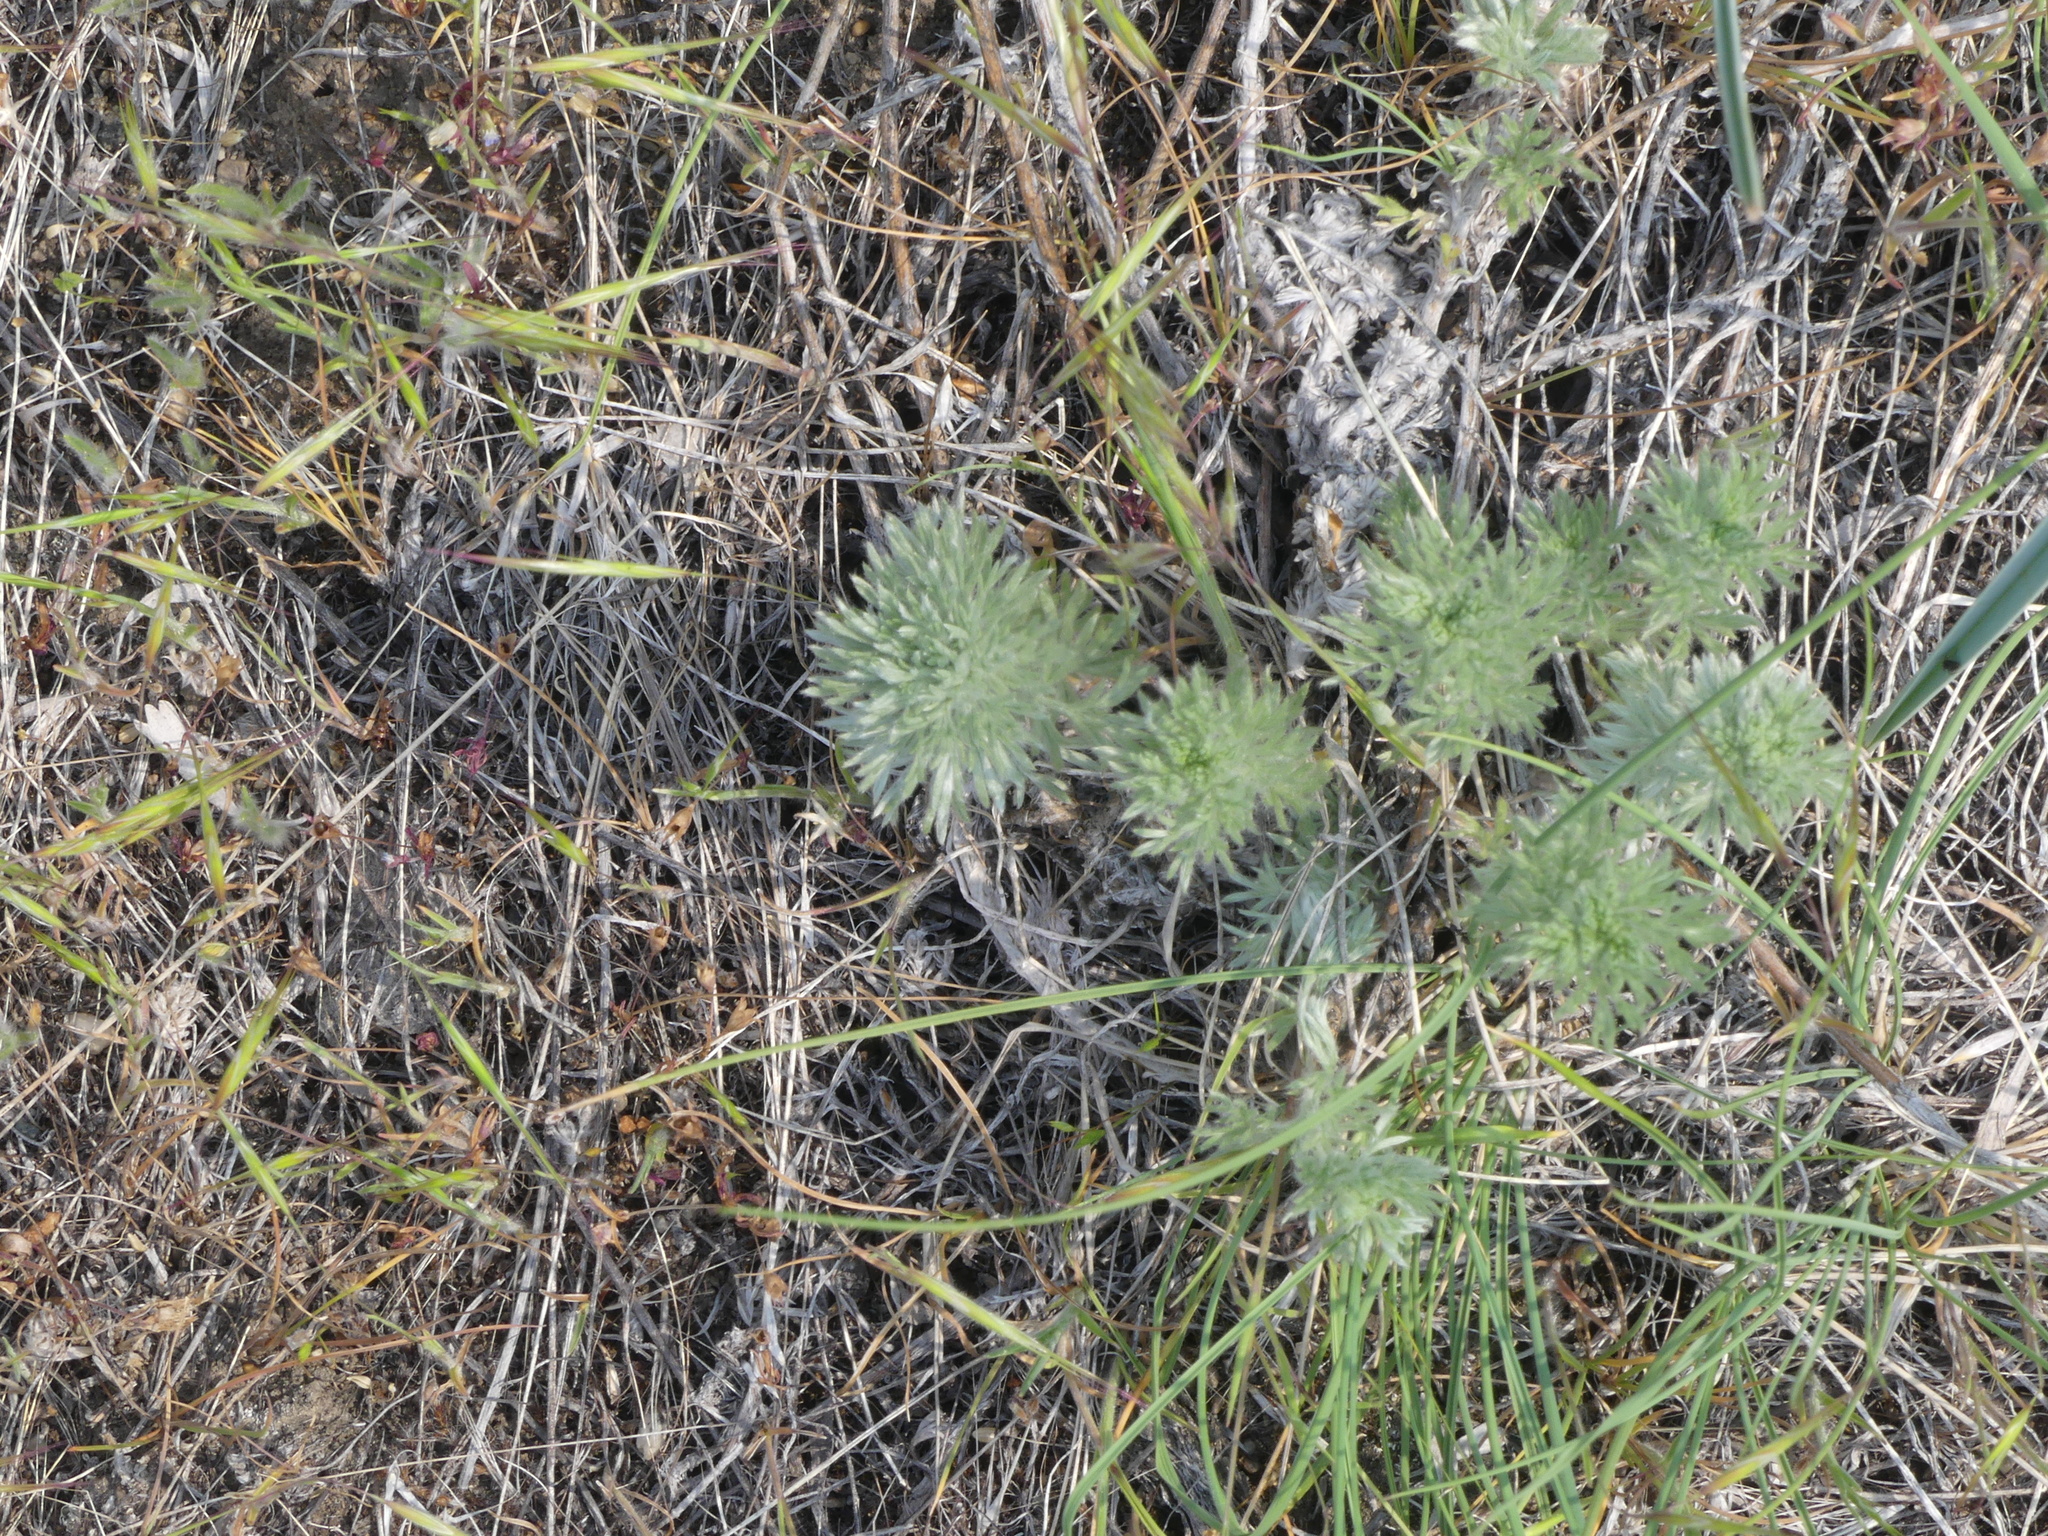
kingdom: Plantae
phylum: Tracheophyta
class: Magnoliopsida
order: Asterales
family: Asteraceae
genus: Artemisia
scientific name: Artemisia frigida
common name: Prairie sagewort
